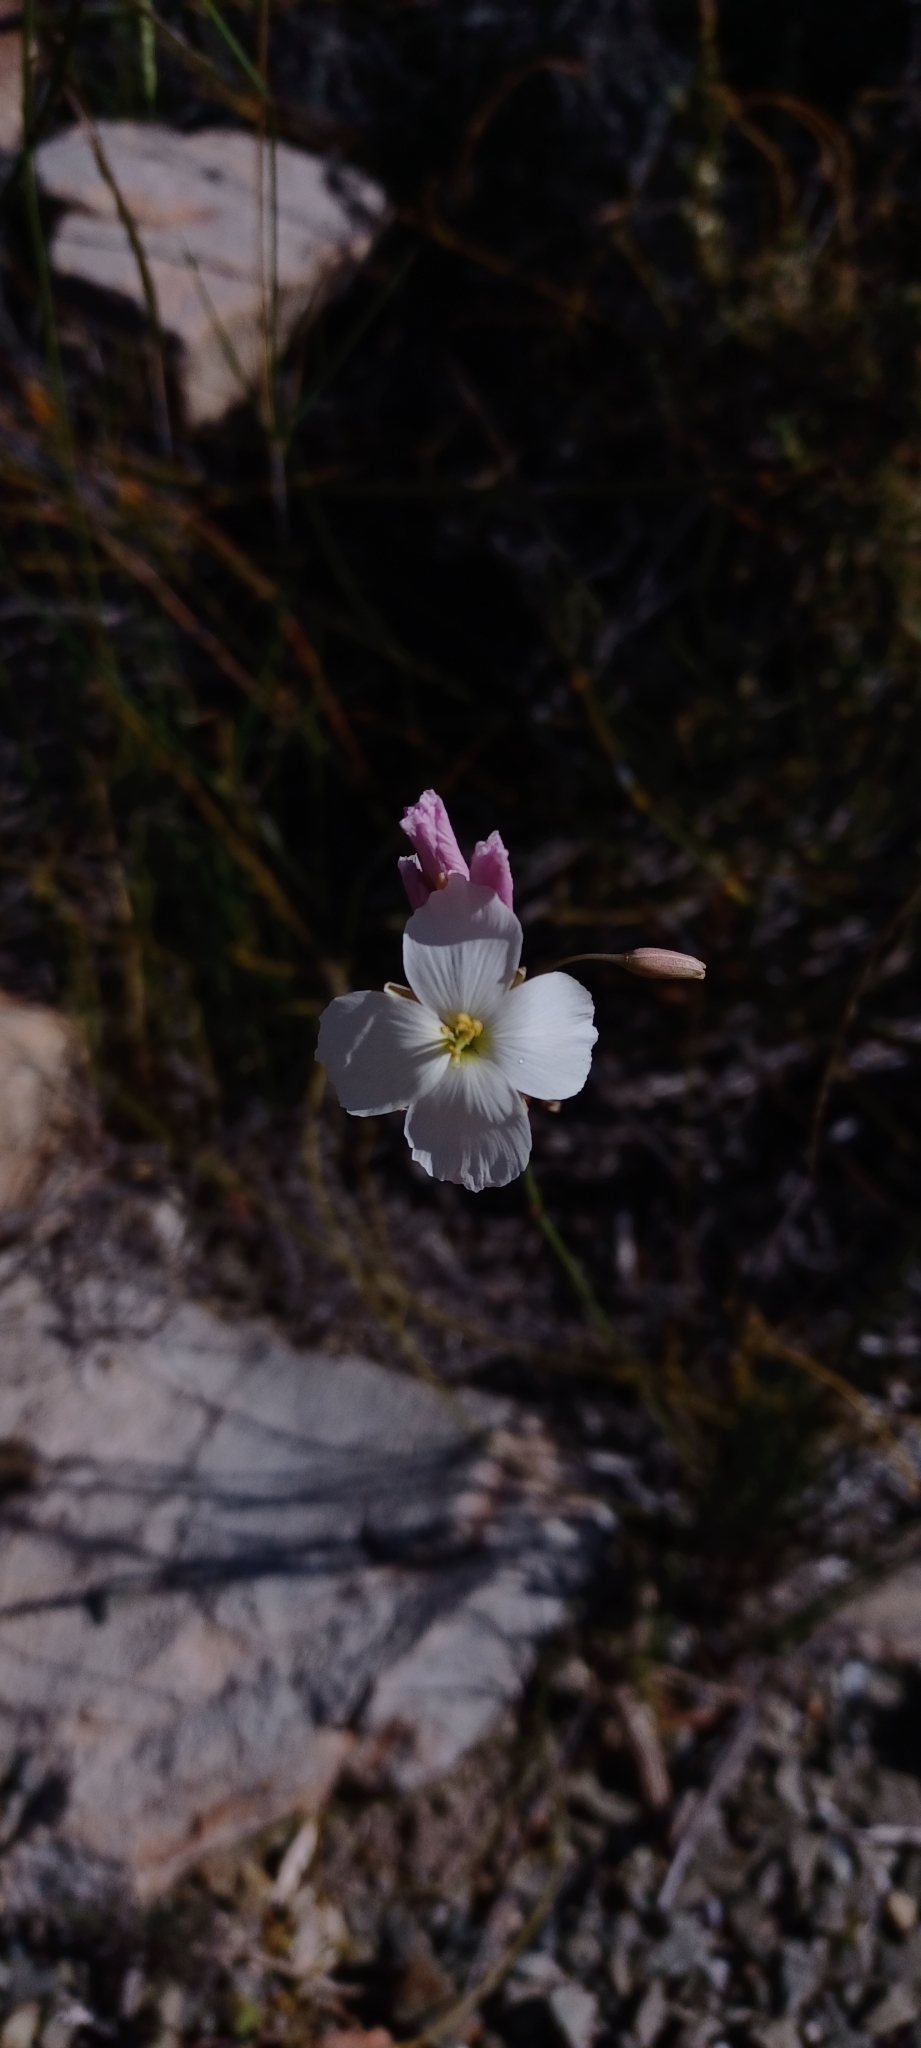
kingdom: Plantae
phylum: Tracheophyta
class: Magnoliopsida
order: Brassicales
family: Brassicaceae
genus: Heliophila
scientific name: Heliophila carnosa
